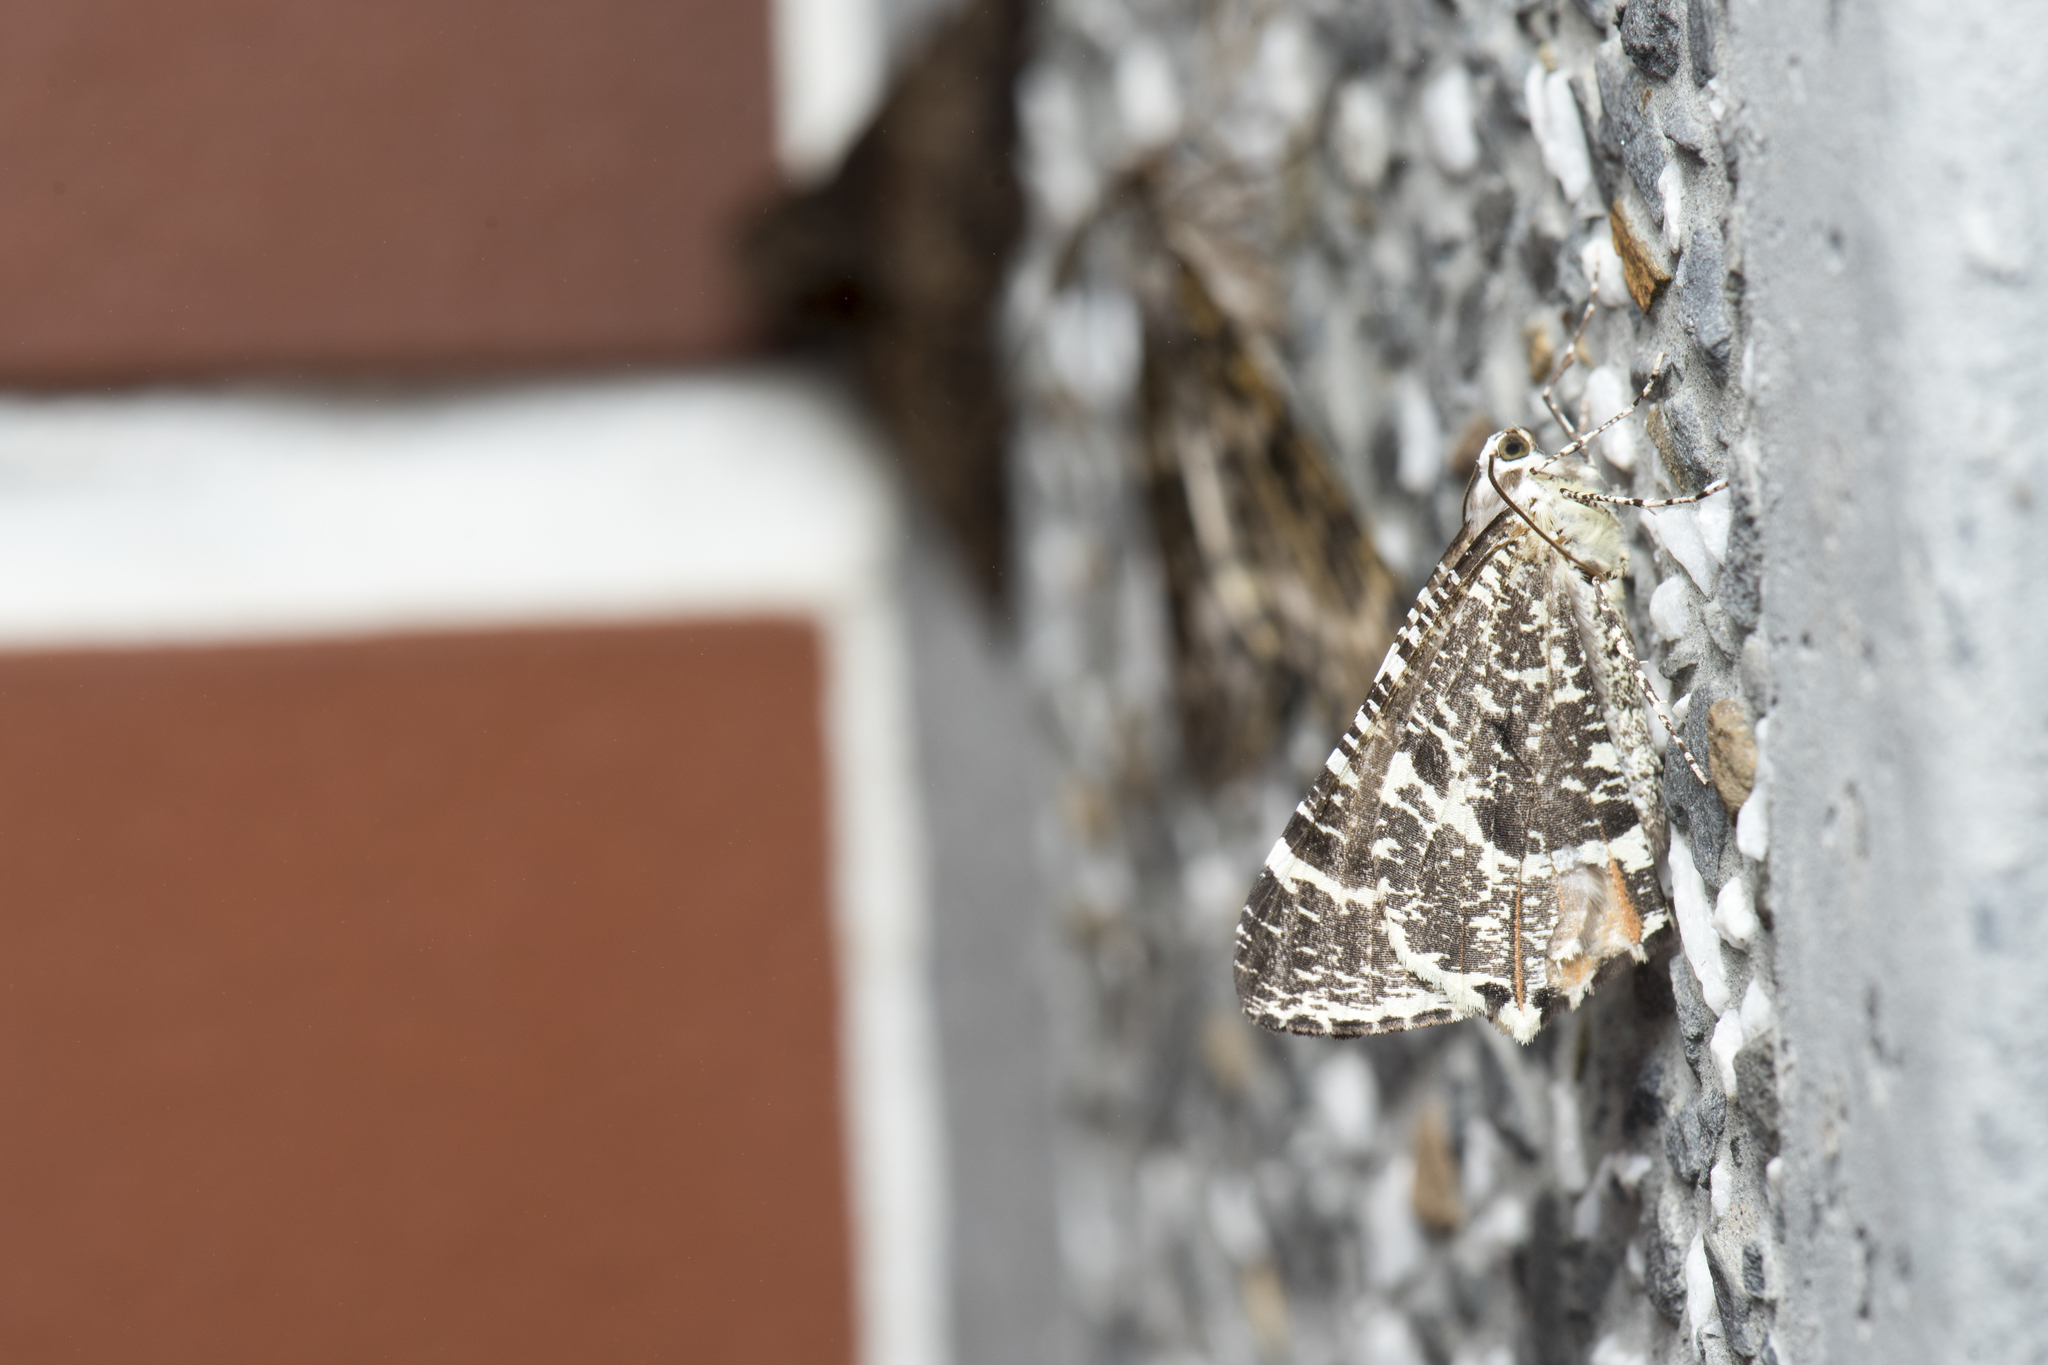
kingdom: Animalia
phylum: Arthropoda
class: Insecta
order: Lepidoptera
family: Geometridae
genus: Ourapteryx
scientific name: Ourapteryx flavovirens
